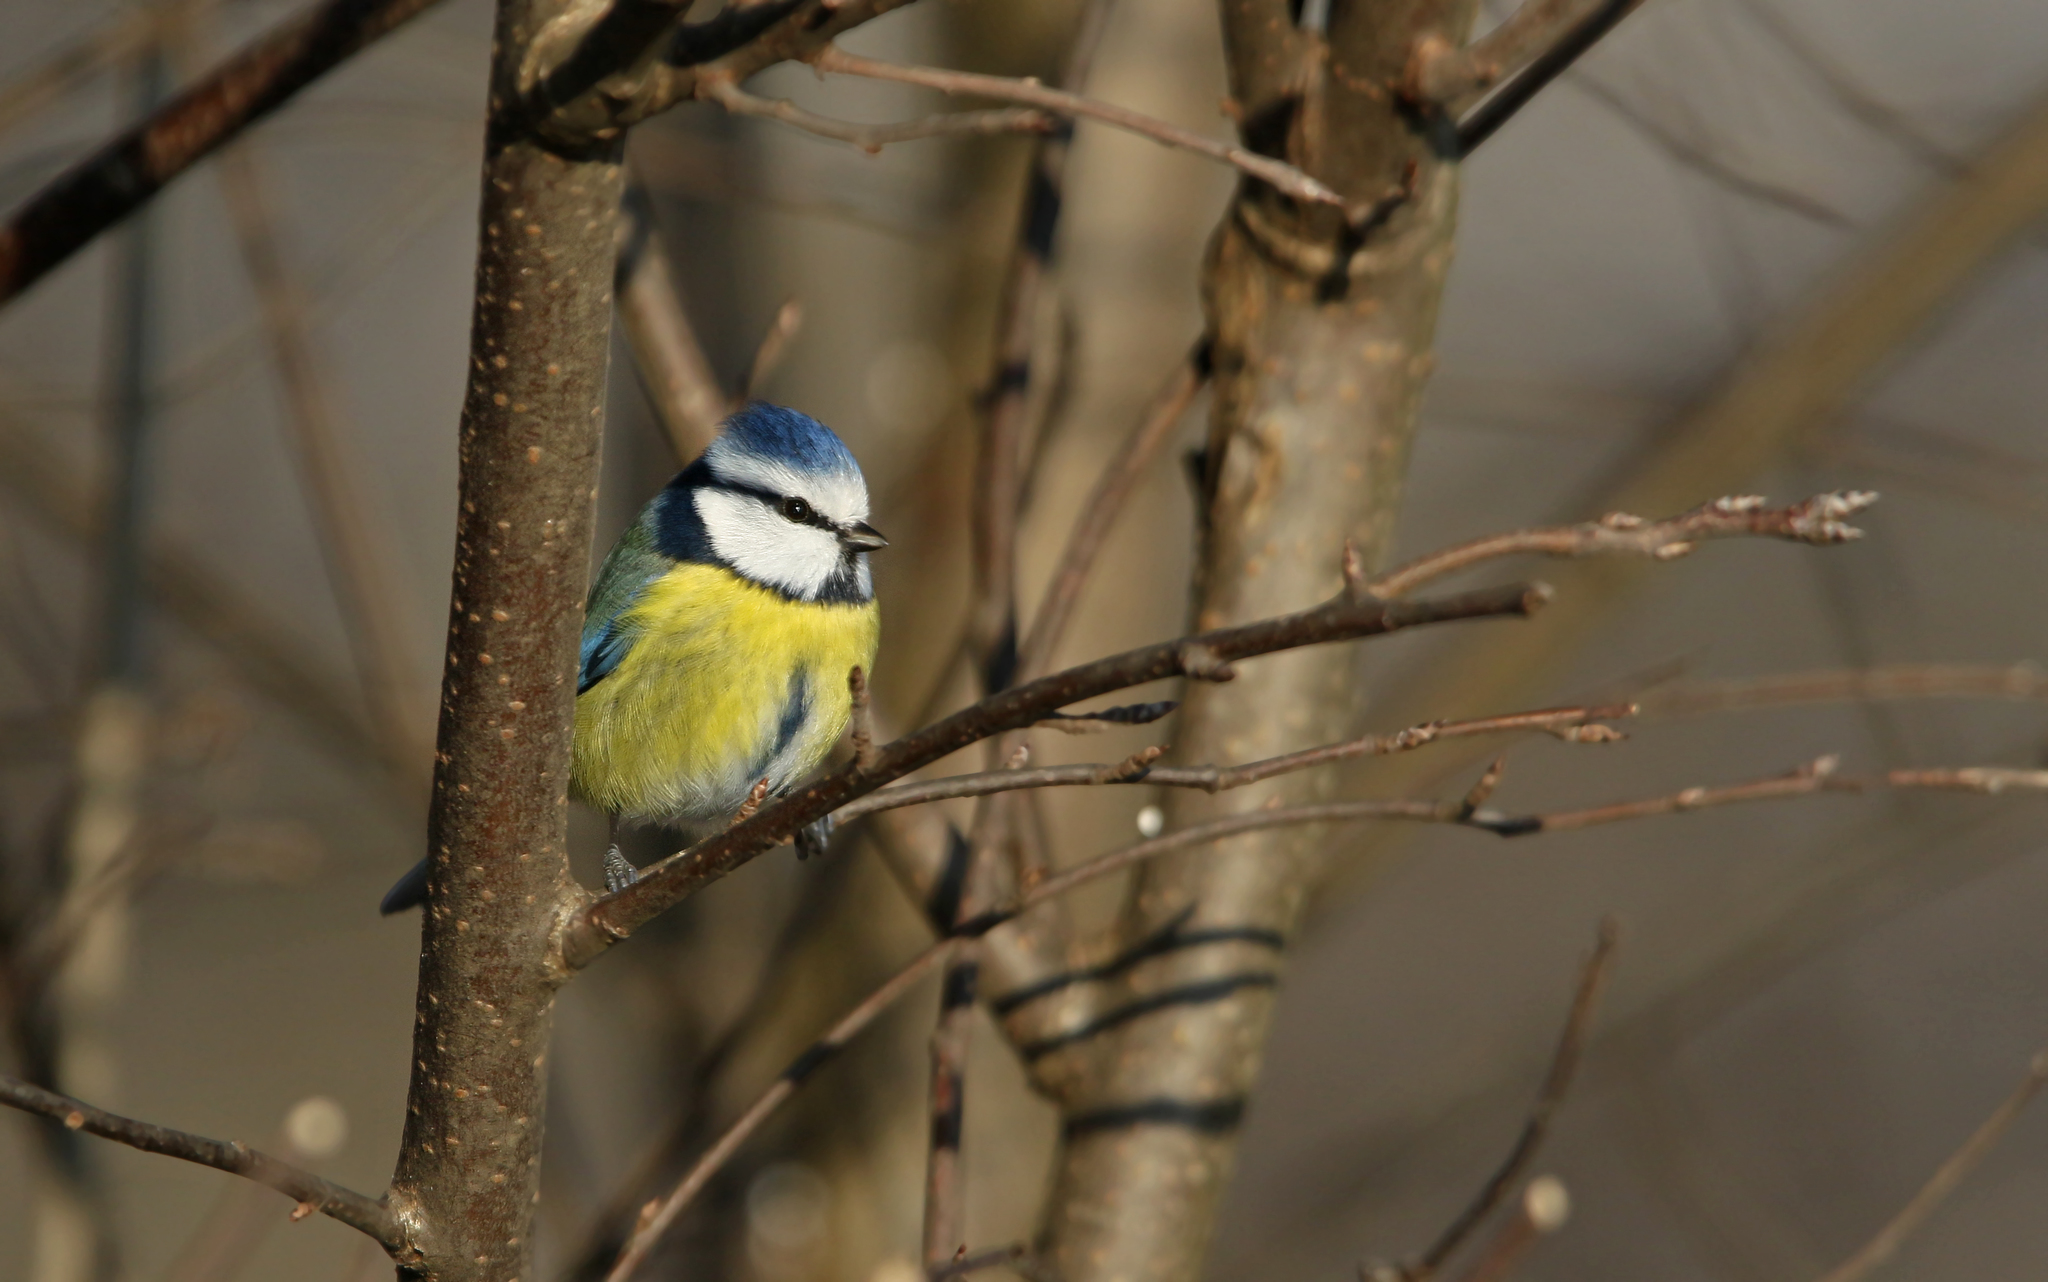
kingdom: Animalia
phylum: Chordata
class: Aves
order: Passeriformes
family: Paridae
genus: Cyanistes
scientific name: Cyanistes caeruleus
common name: Eurasian blue tit
